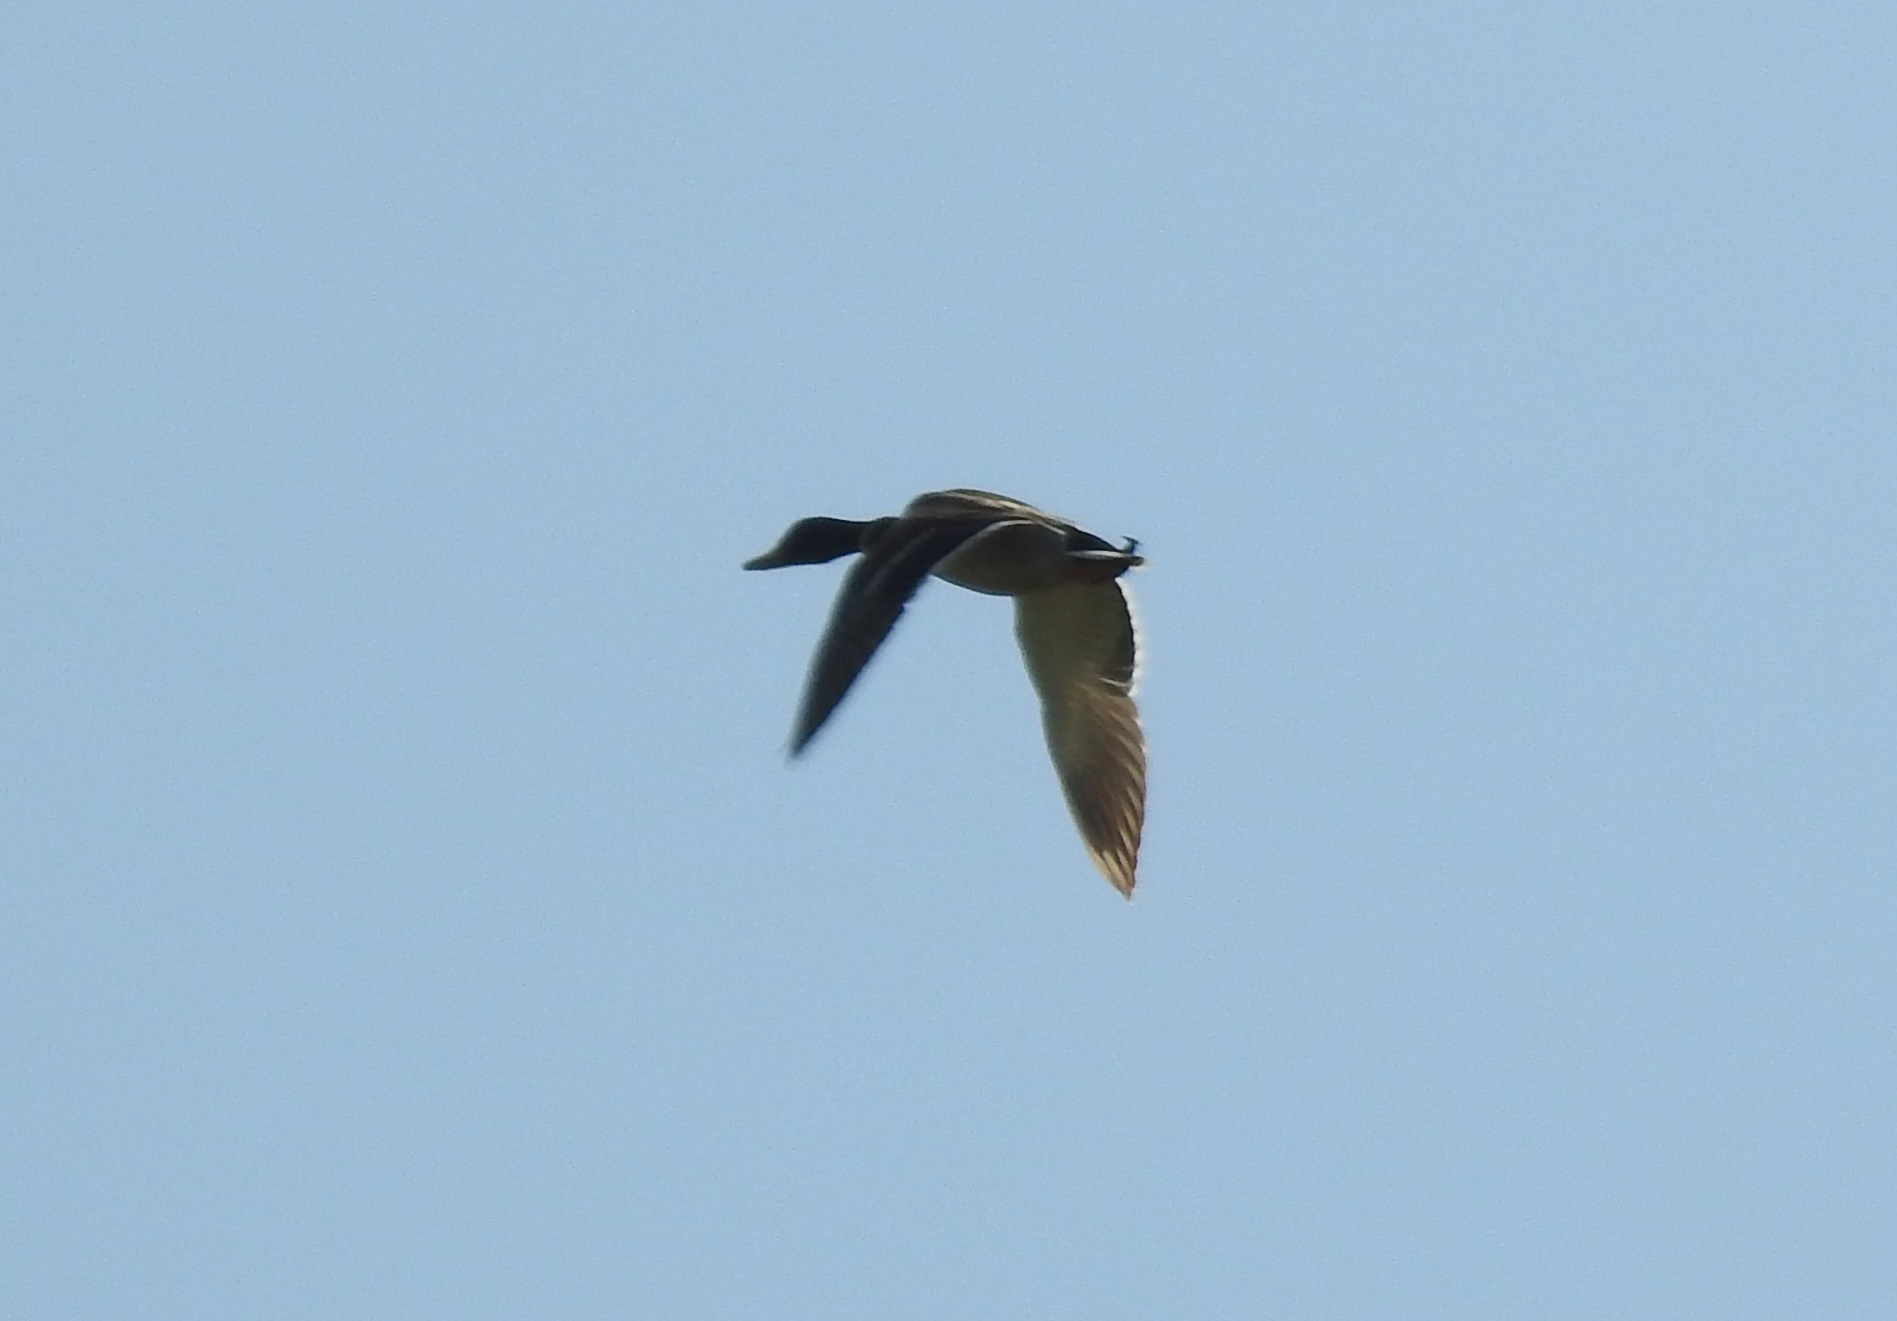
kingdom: Animalia
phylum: Chordata
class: Aves
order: Anseriformes
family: Anatidae
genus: Anas
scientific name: Anas platyrhynchos
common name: Mallard
